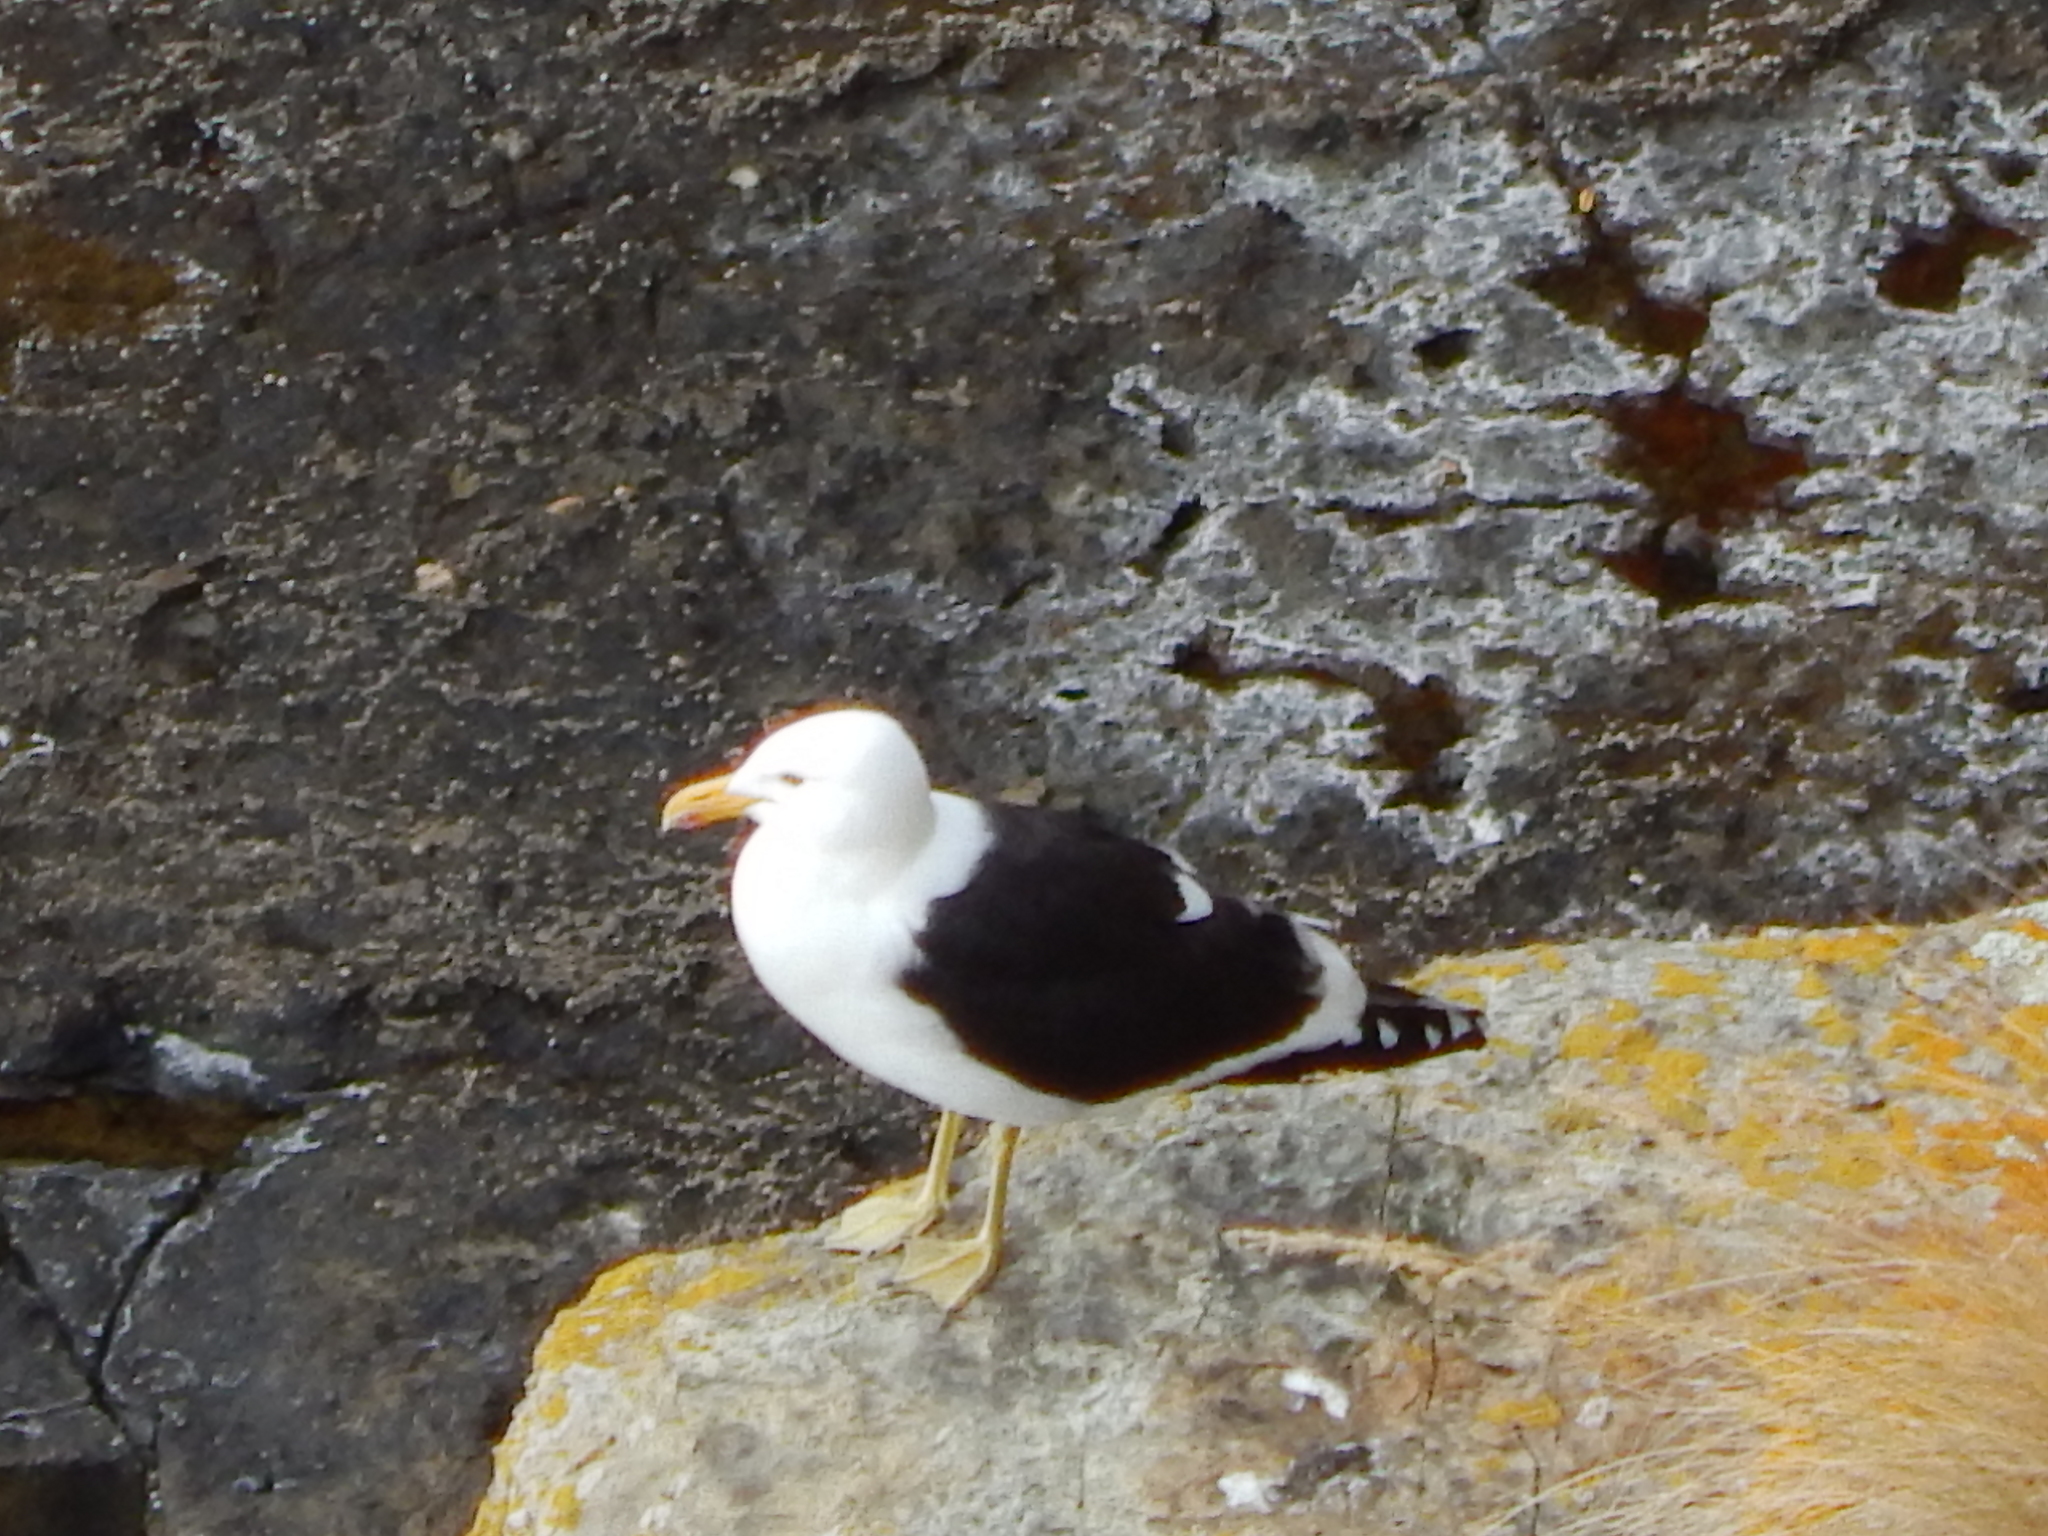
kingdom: Animalia
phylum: Chordata
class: Aves
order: Charadriiformes
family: Laridae
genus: Larus
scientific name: Larus dominicanus
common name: Kelp gull
